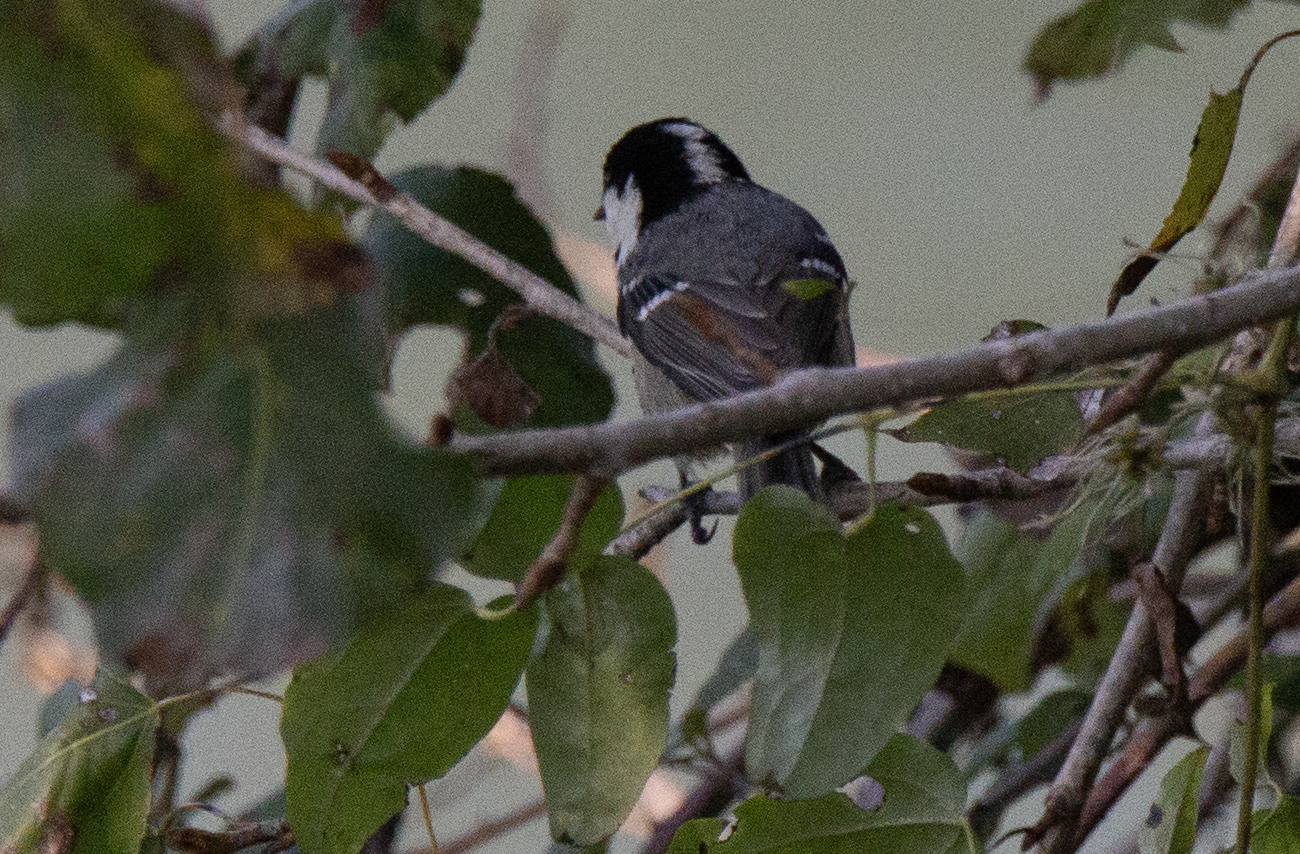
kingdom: Animalia
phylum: Chordata
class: Aves
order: Passeriformes
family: Paridae
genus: Periparus
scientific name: Periparus ater
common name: Coal tit
